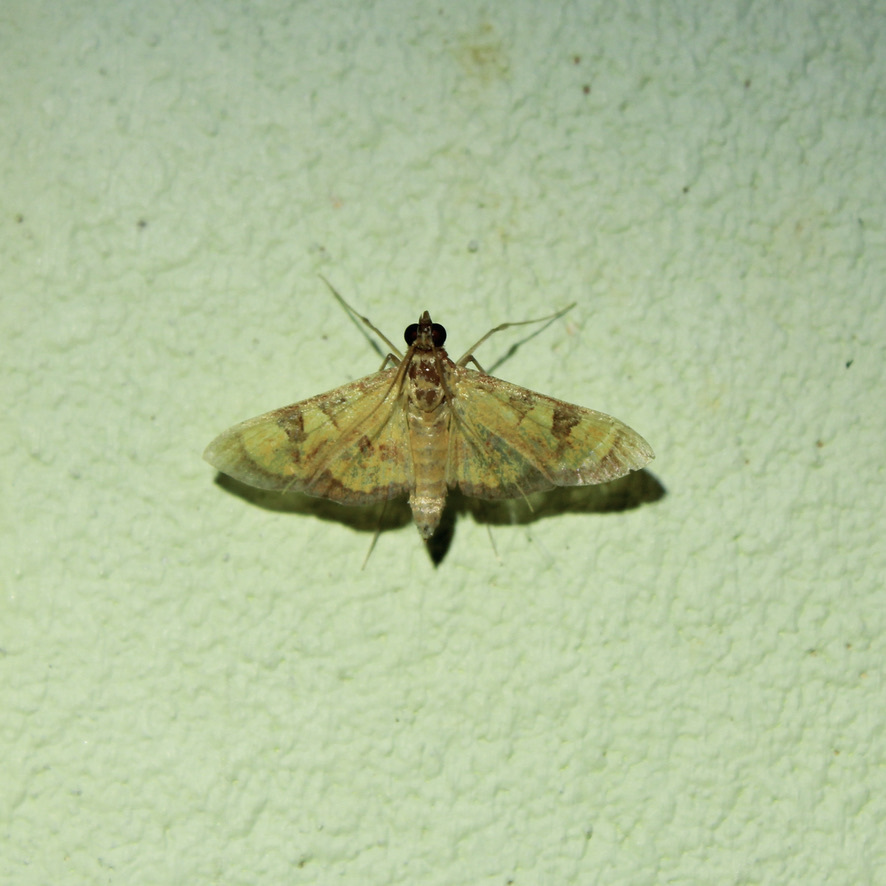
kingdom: Animalia
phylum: Arthropoda
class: Insecta
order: Lepidoptera
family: Crambidae
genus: Trithyris
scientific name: Trithyris
